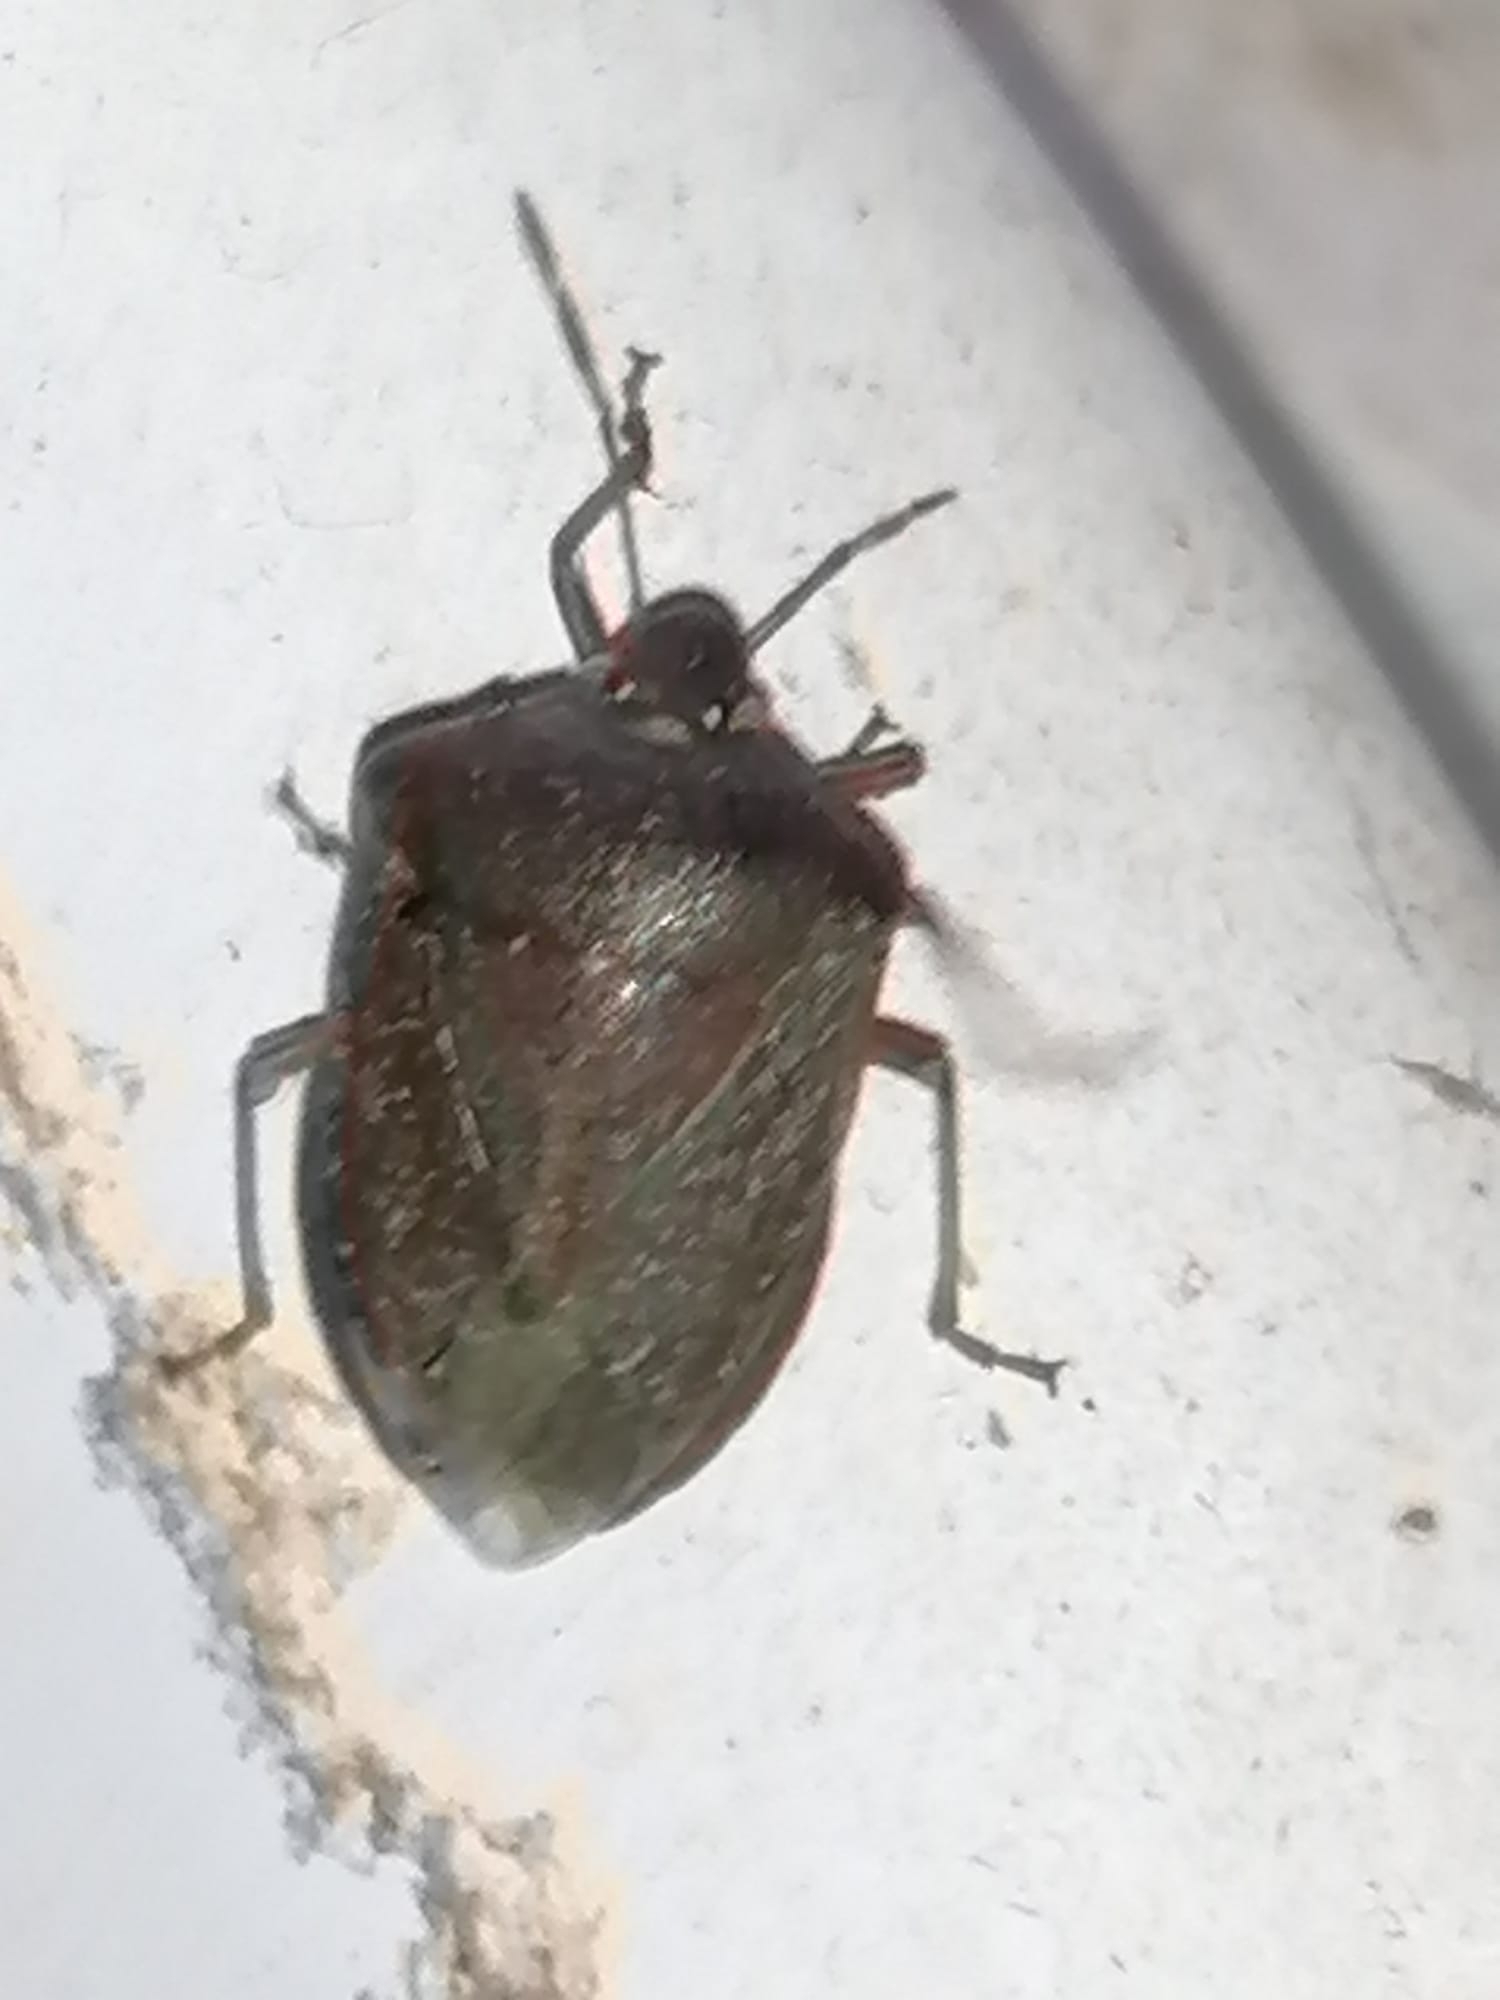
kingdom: Animalia
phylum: Arthropoda
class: Insecta
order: Hemiptera
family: Pentatomidae
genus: Nezara
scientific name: Nezara viridula
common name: Southern green stink bug
